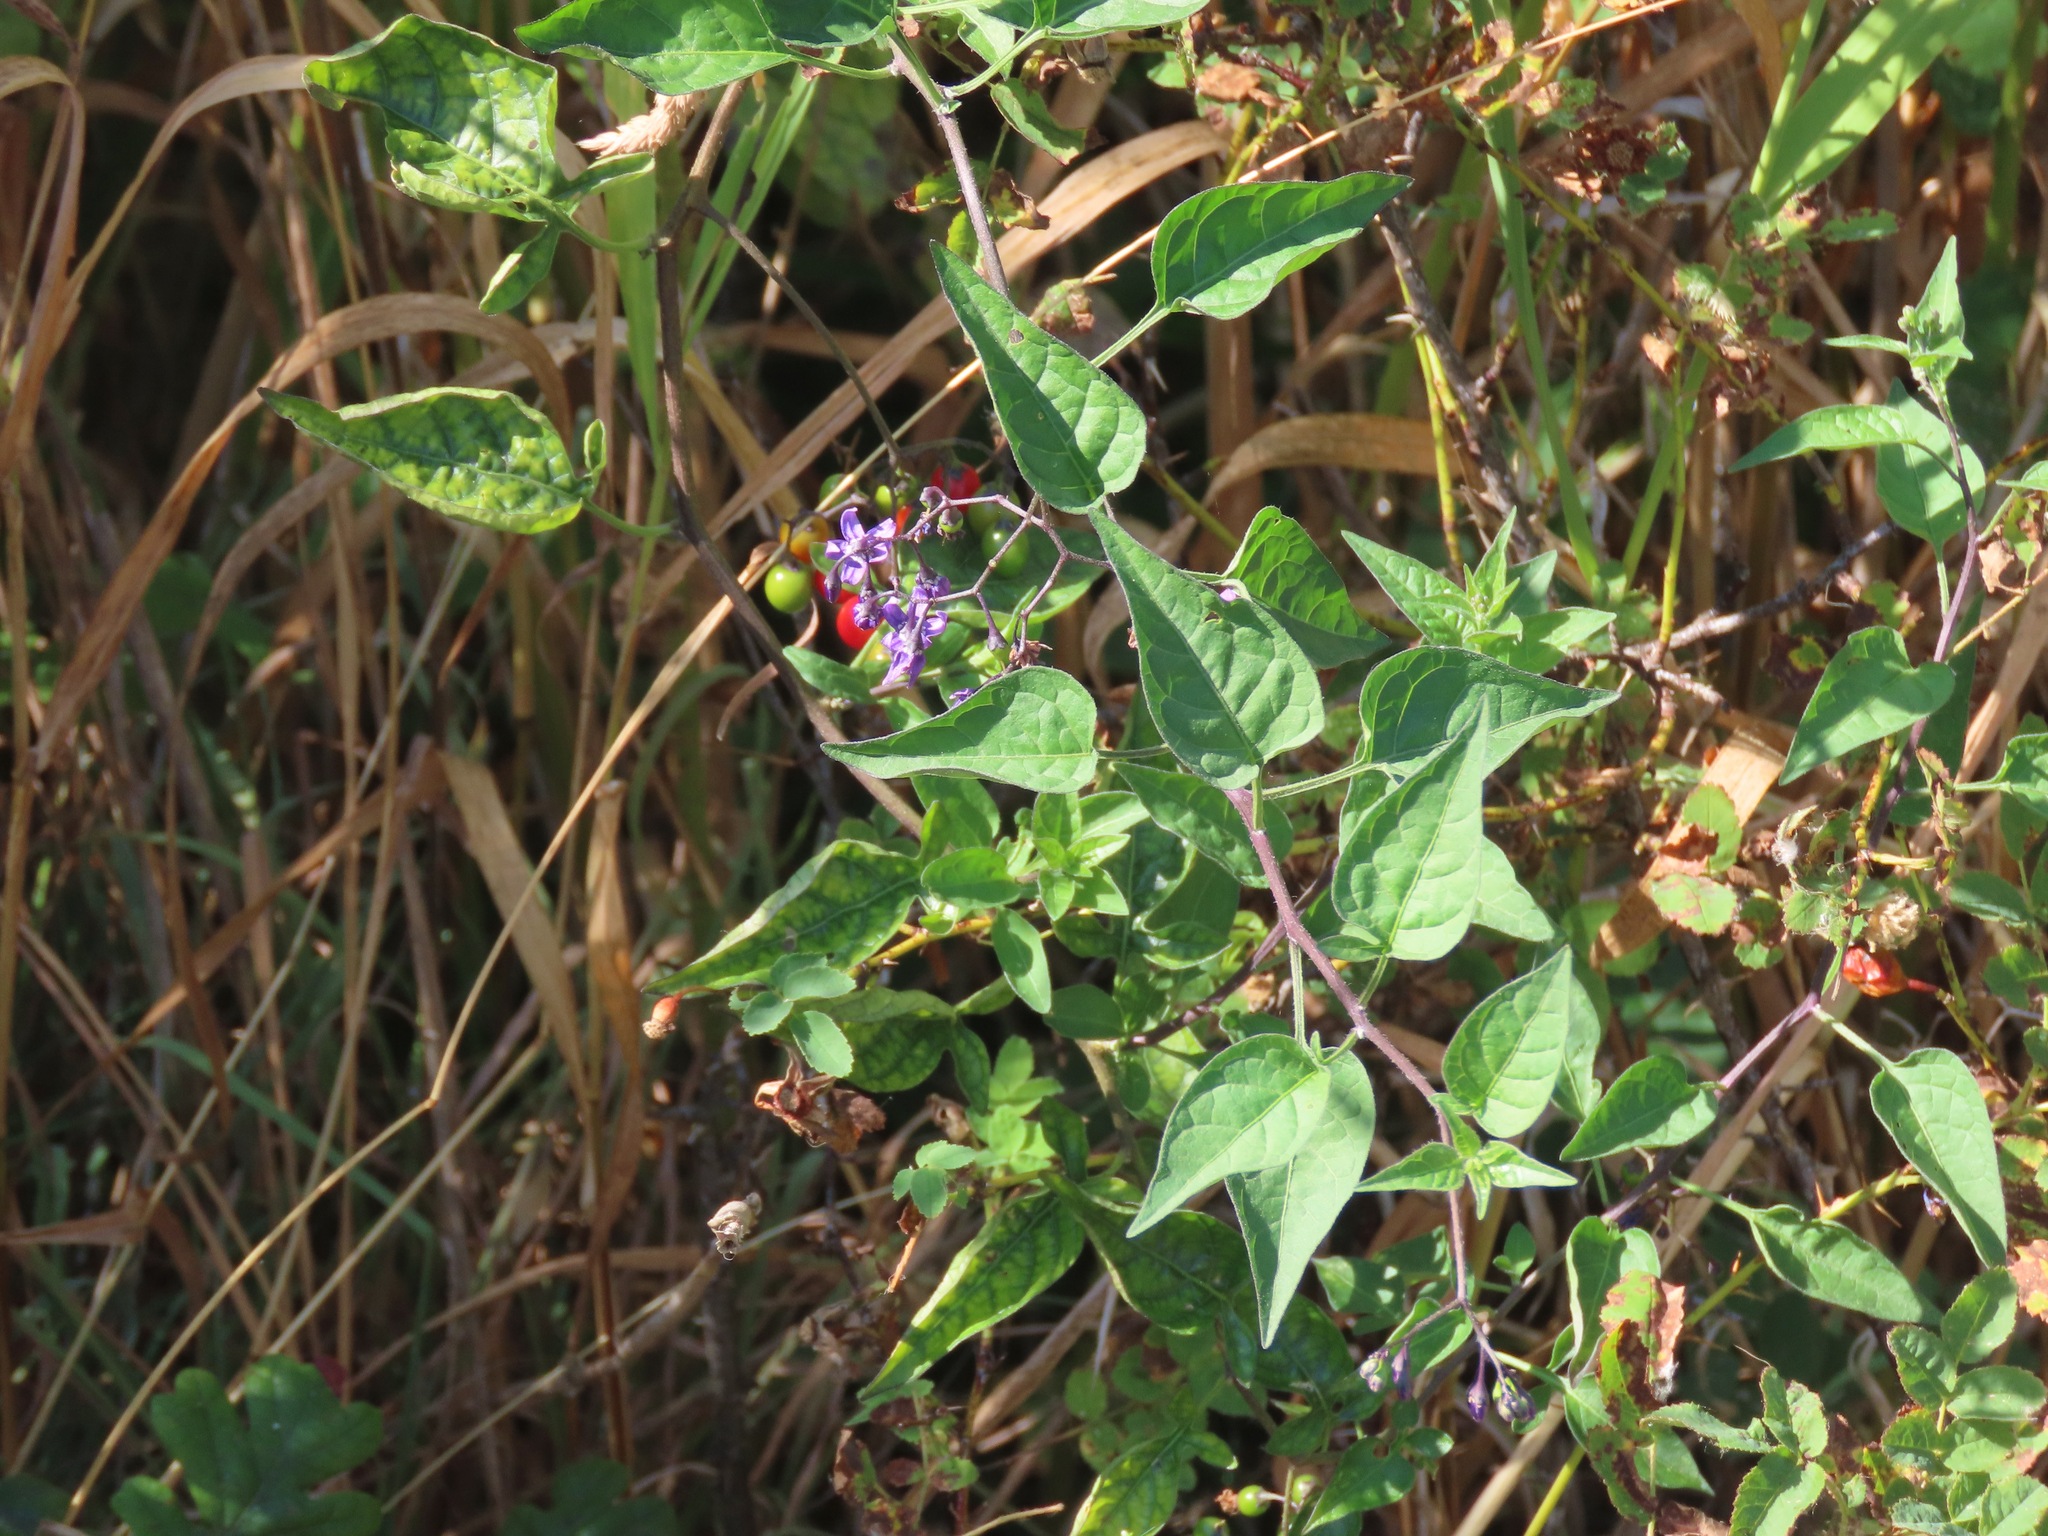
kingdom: Plantae
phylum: Tracheophyta
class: Magnoliopsida
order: Solanales
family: Solanaceae
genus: Solanum
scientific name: Solanum dulcamara
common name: Climbing nightshade
